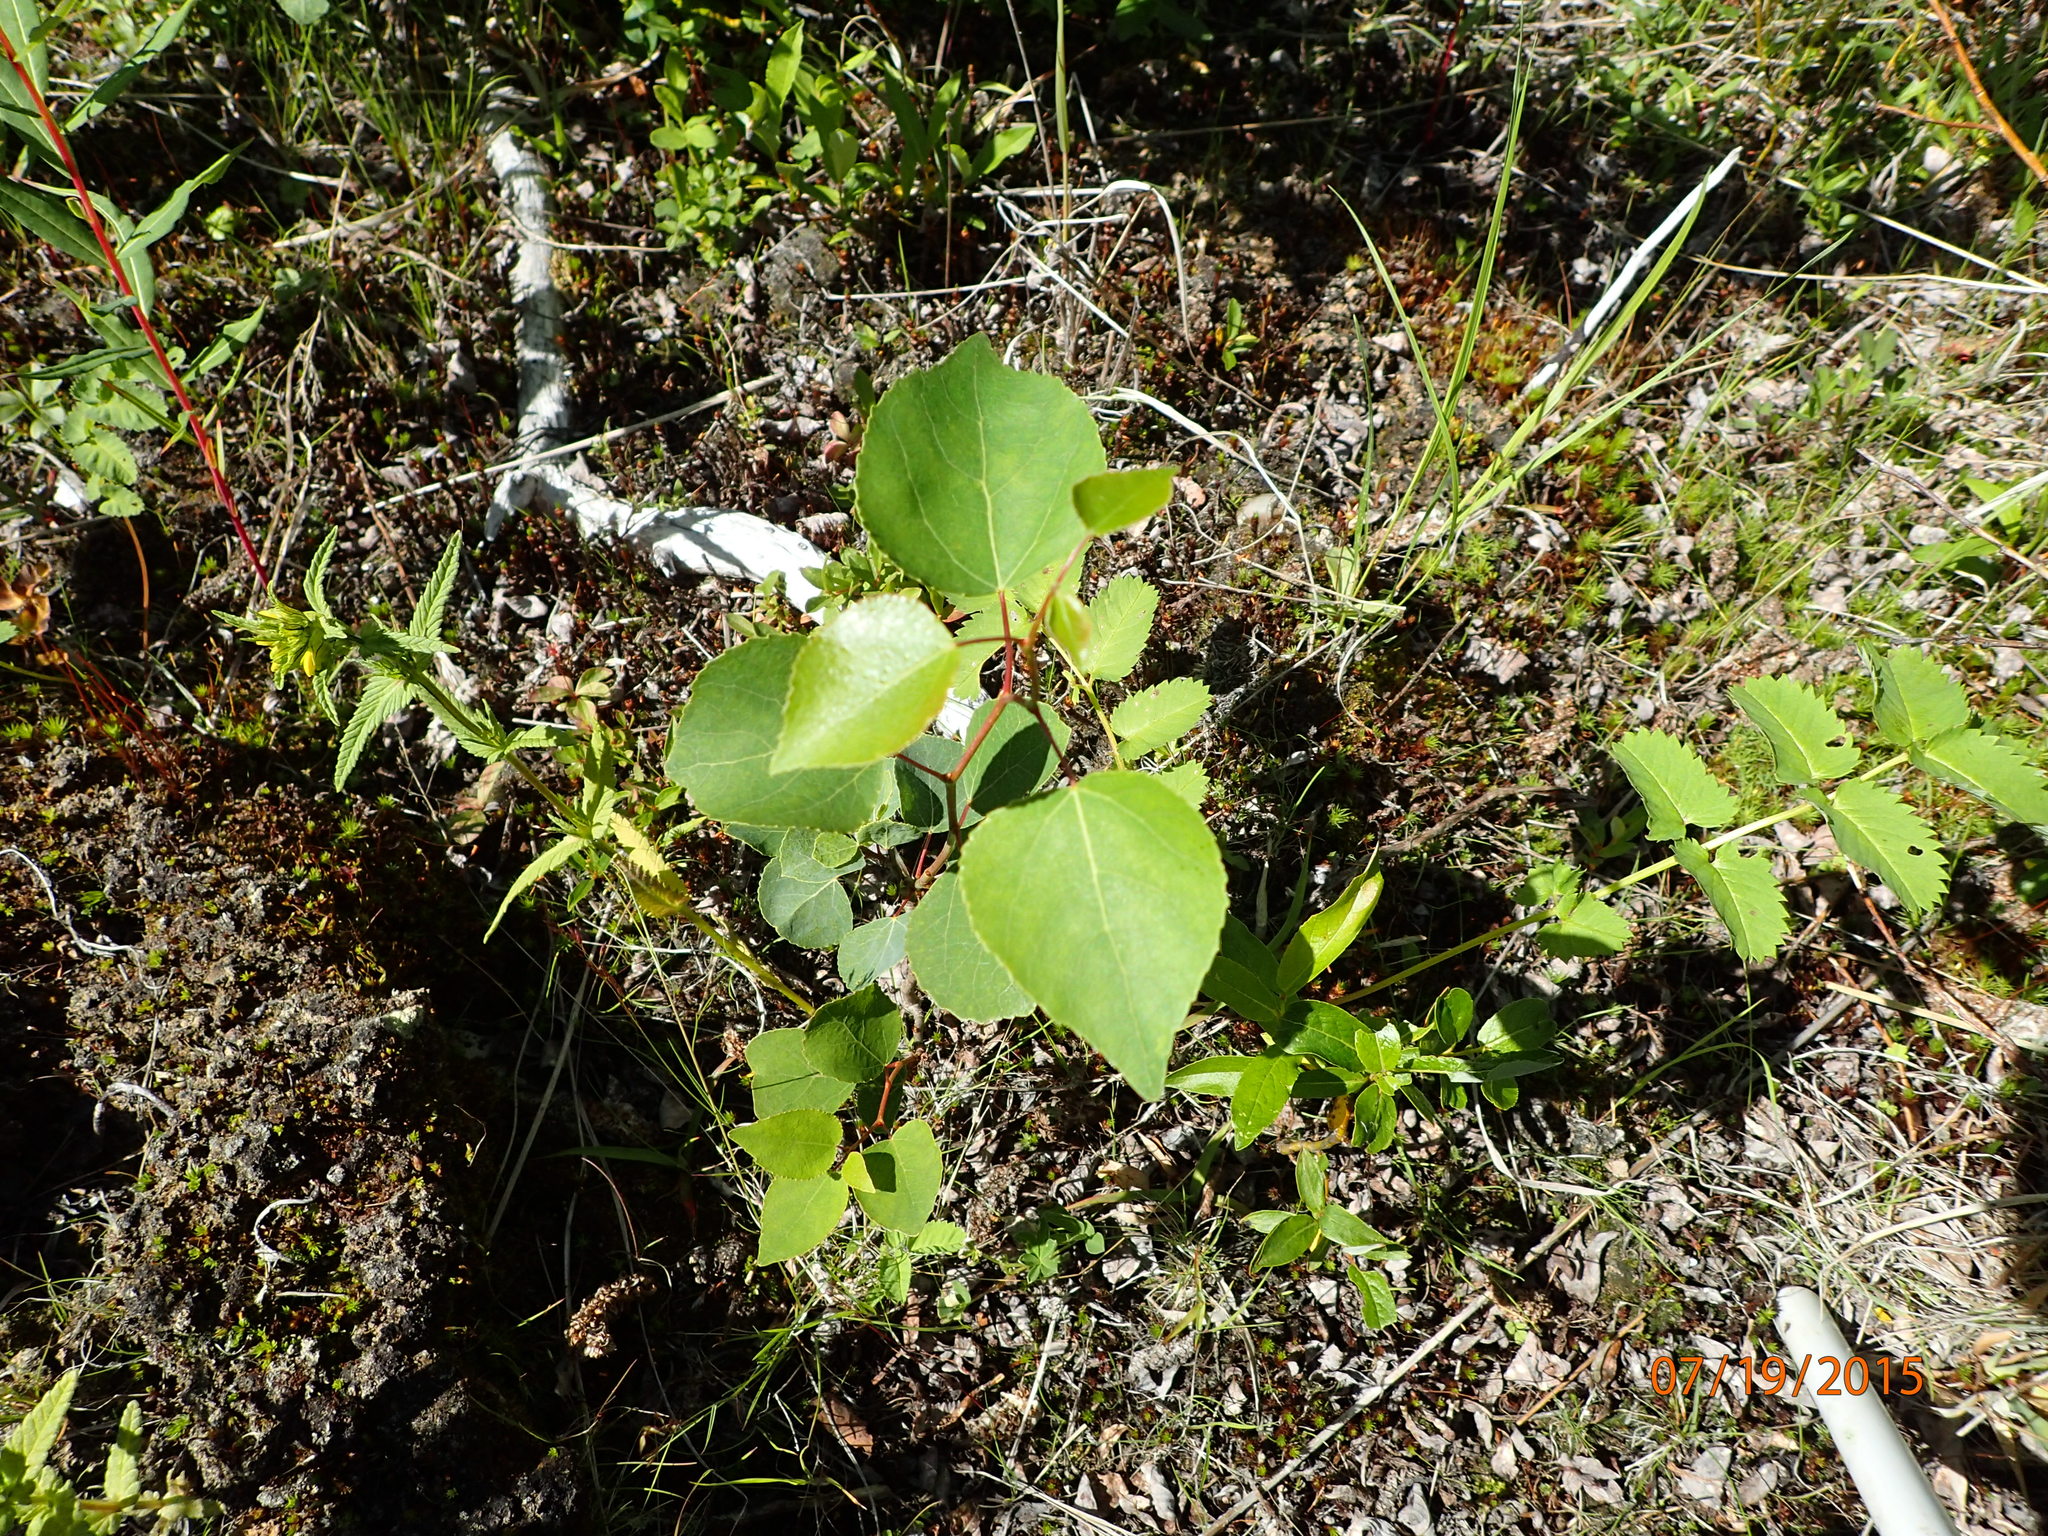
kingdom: Plantae
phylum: Tracheophyta
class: Magnoliopsida
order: Malpighiales
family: Salicaceae
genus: Populus
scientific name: Populus tremuloides
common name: Quaking aspen
